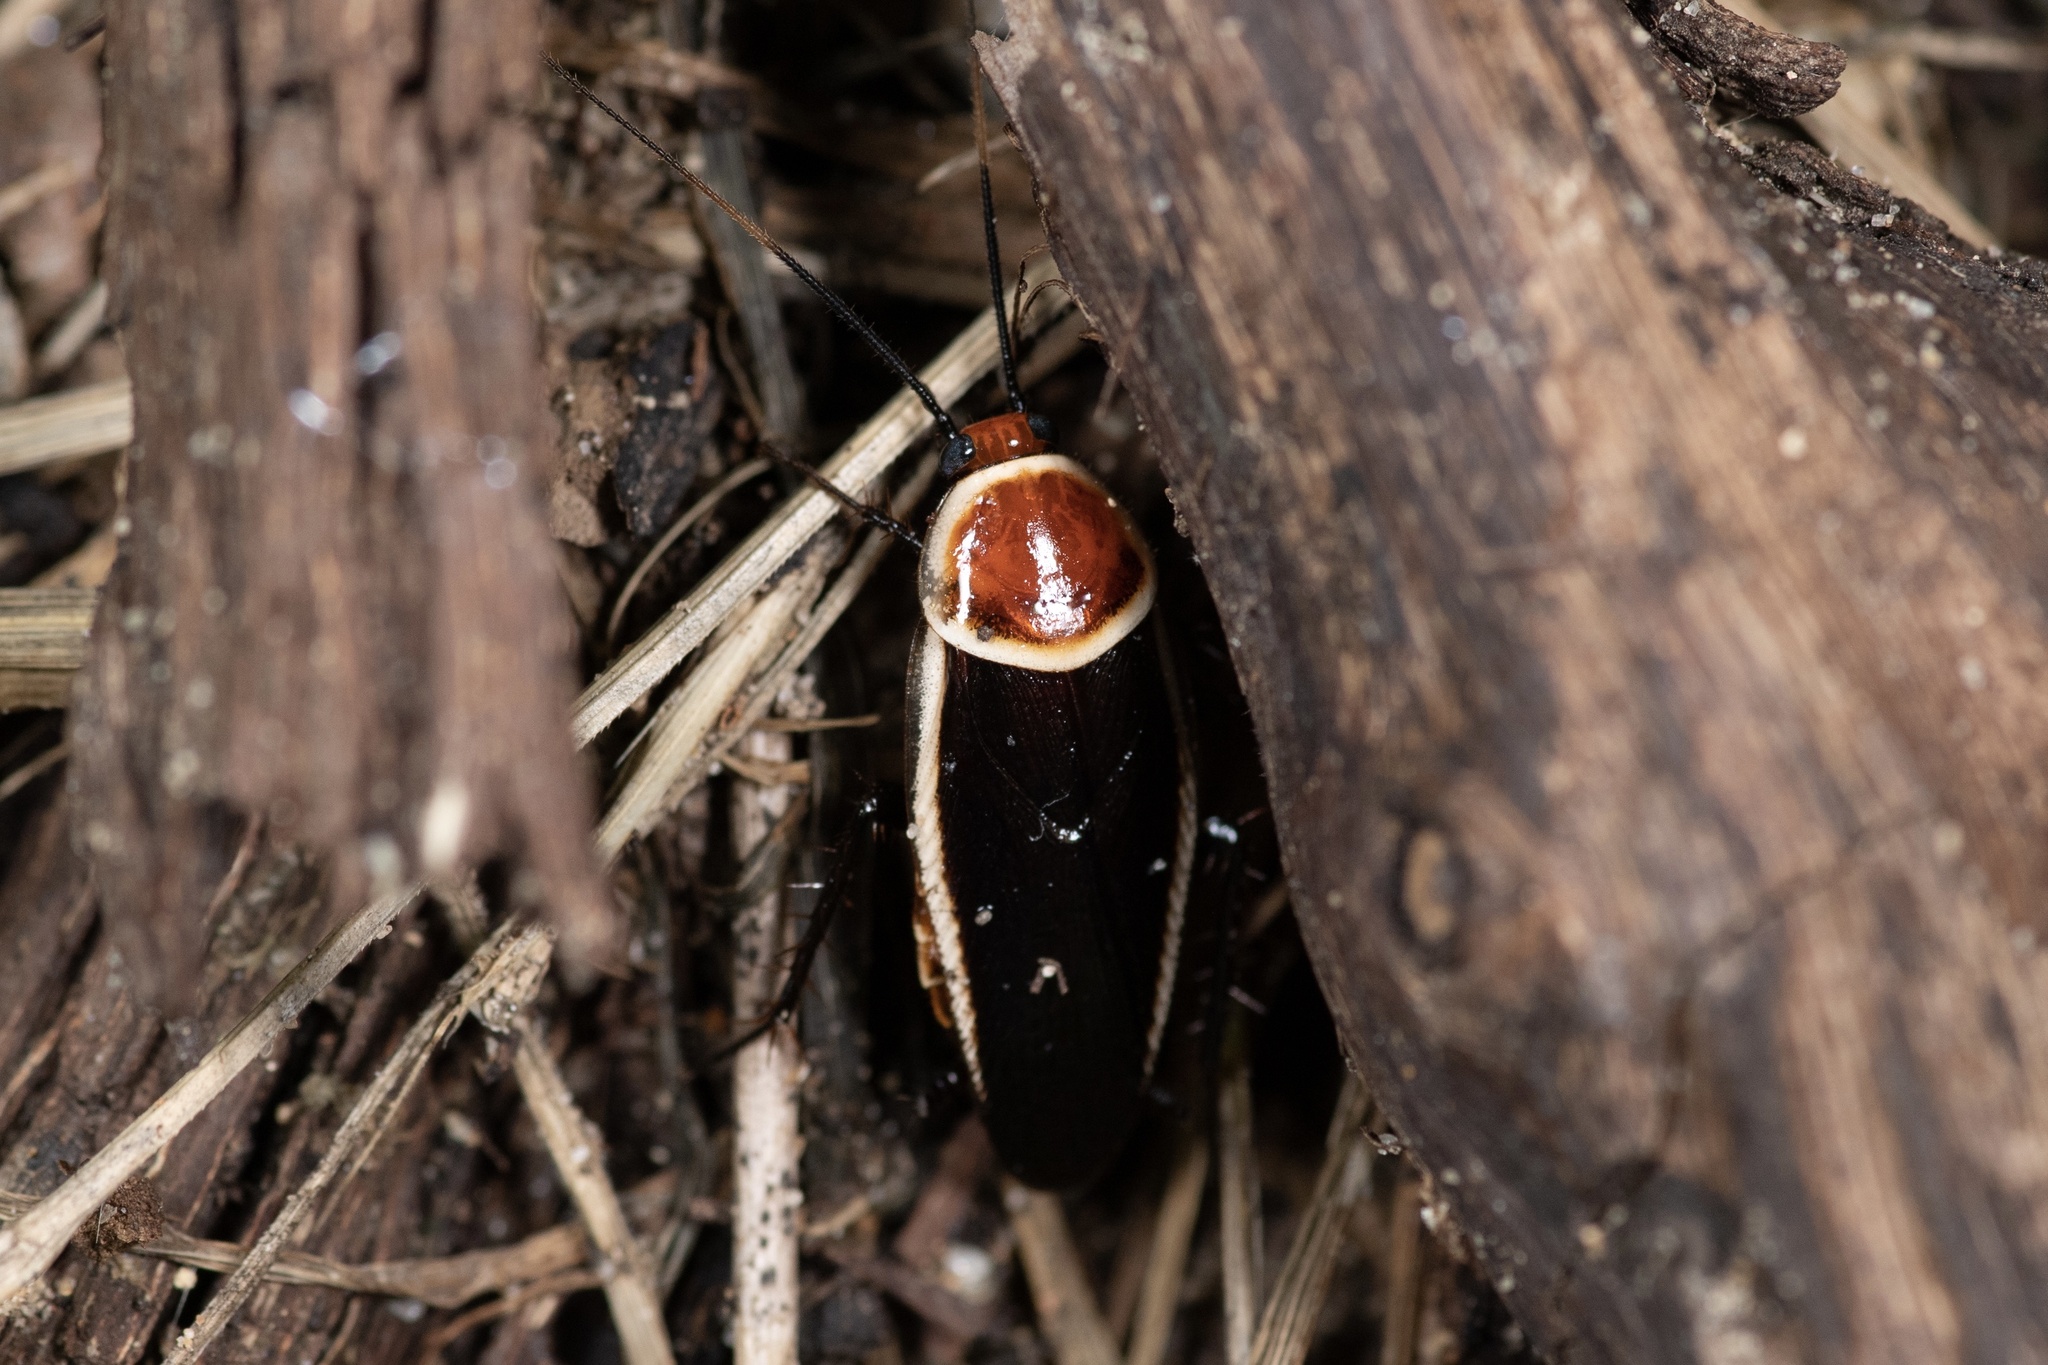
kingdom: Animalia
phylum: Arthropoda
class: Insecta
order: Blattodea
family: Ectobiidae
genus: Pseudomops
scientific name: Pseudomops septentrionalis
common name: Pale-bordered field cockroach
